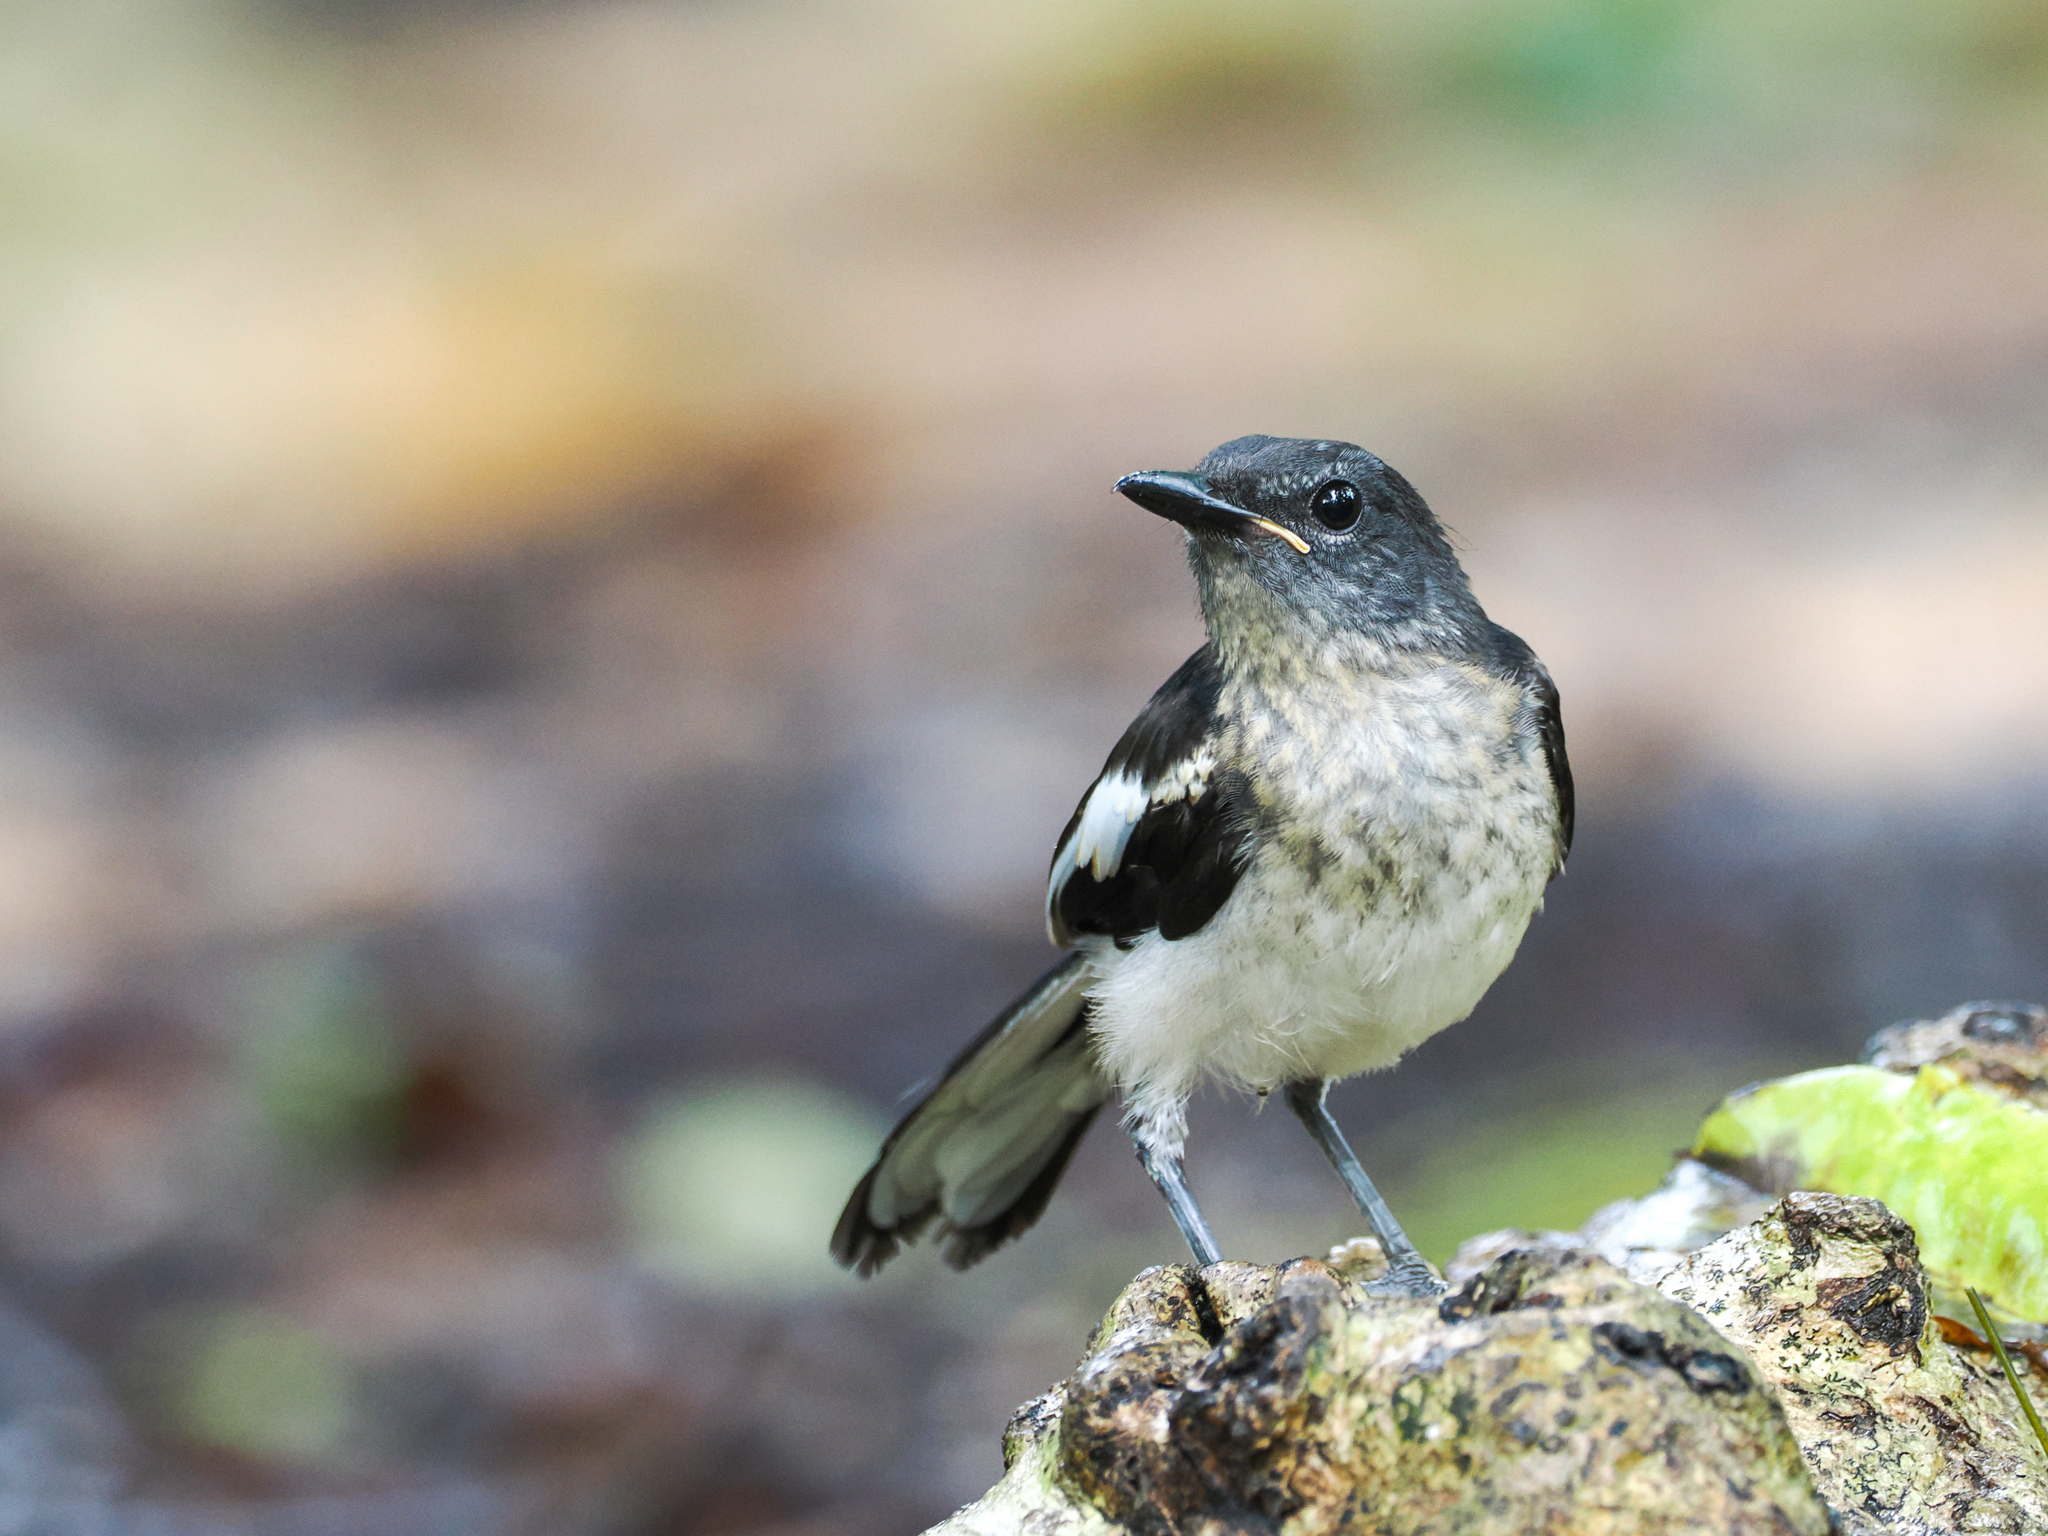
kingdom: Animalia
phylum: Chordata
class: Aves
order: Passeriformes
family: Muscicapidae
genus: Copsychus
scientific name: Copsychus saularis
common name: Oriental magpie-robin
